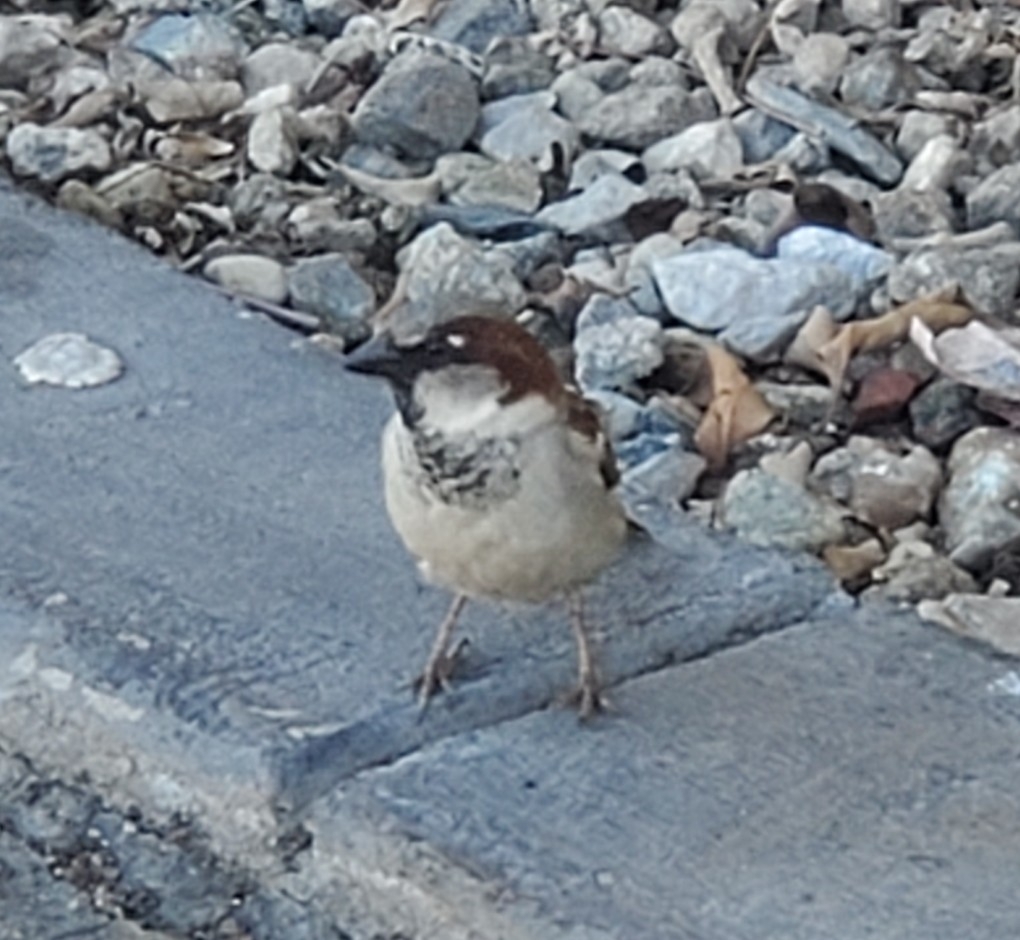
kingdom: Animalia
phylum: Chordata
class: Aves
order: Passeriformes
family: Passeridae
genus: Passer
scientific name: Passer domesticus
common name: House sparrow
